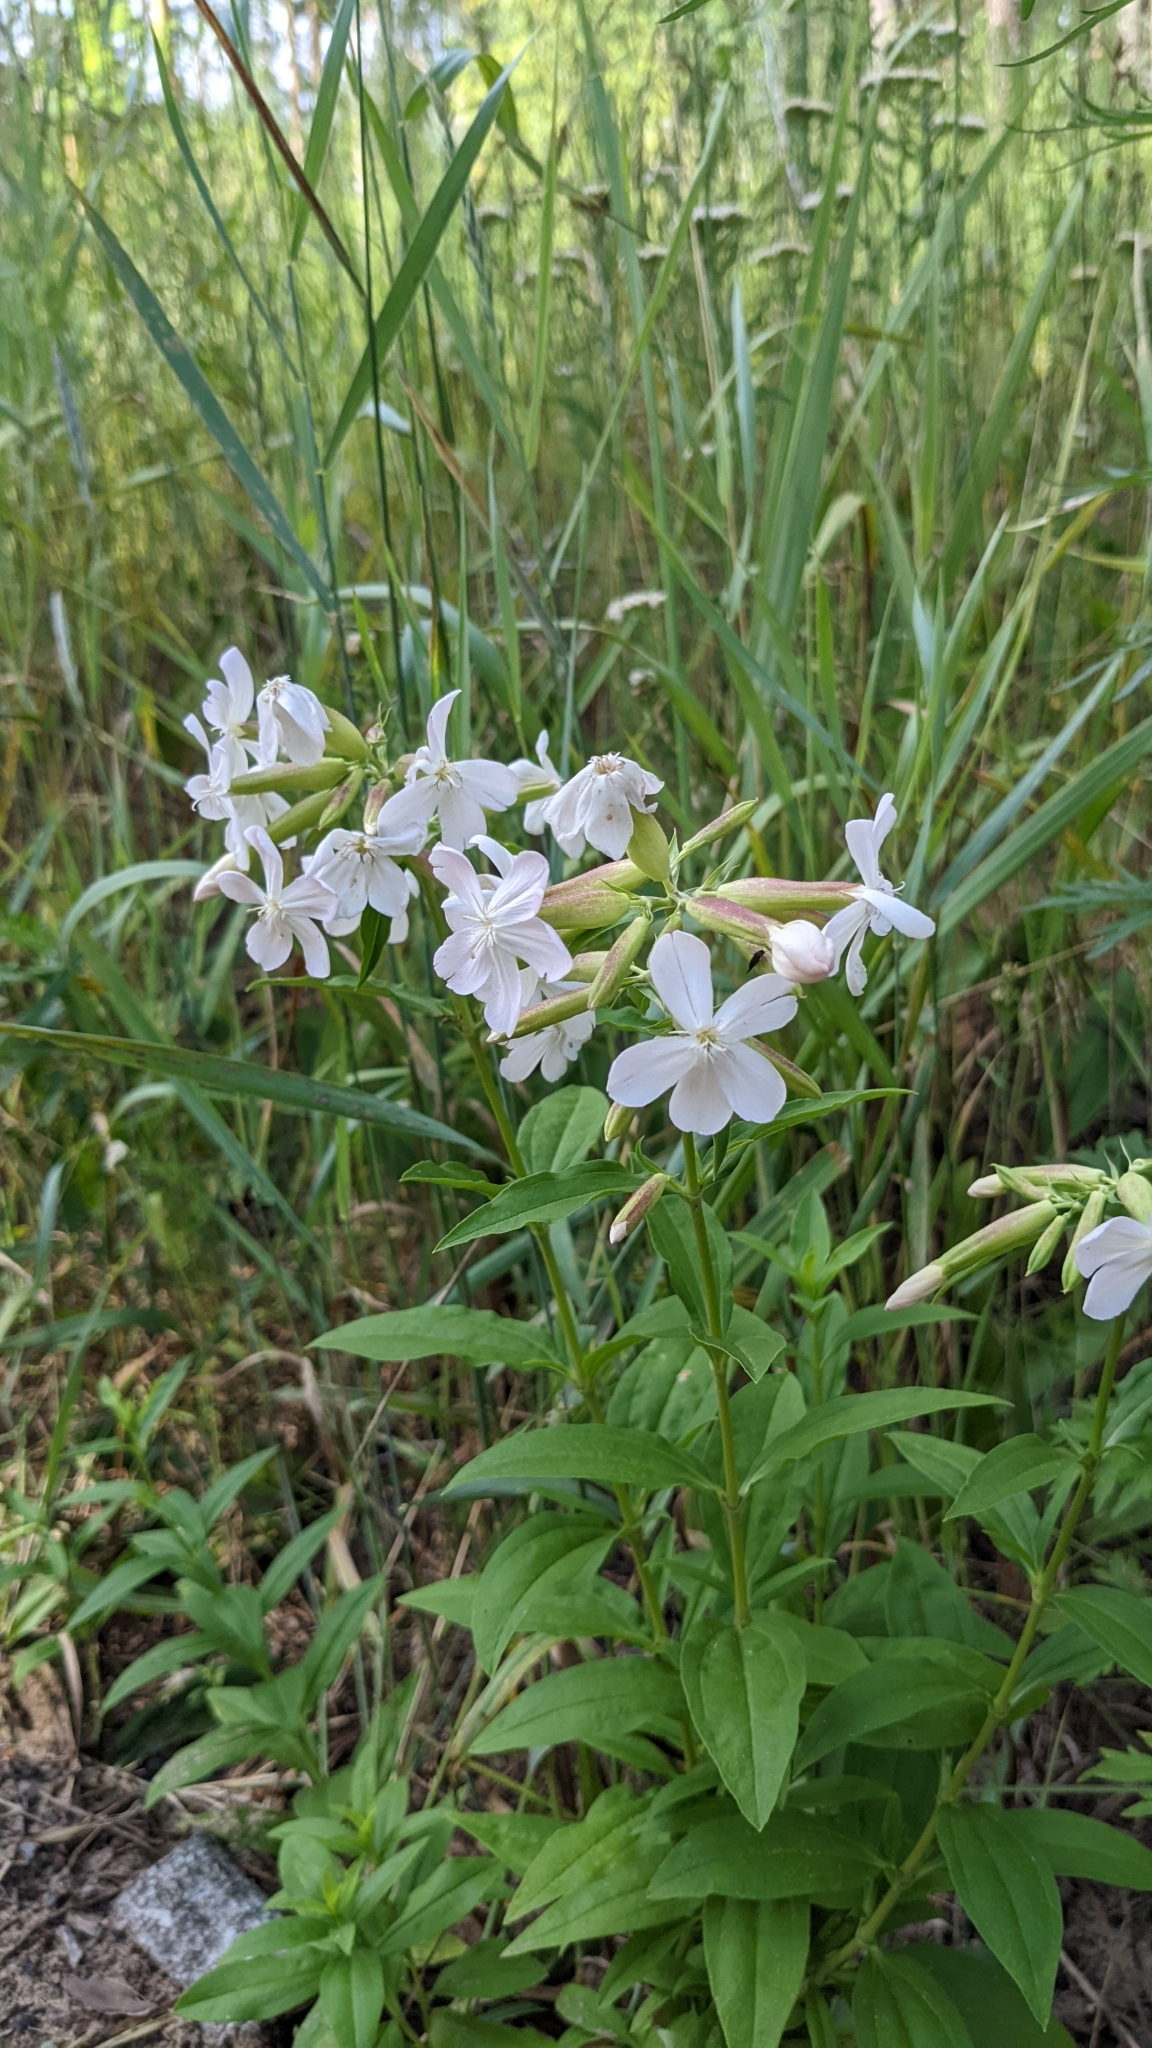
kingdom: Plantae
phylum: Tracheophyta
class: Magnoliopsida
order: Caryophyllales
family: Caryophyllaceae
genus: Saponaria
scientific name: Saponaria officinalis
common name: Soapwort
